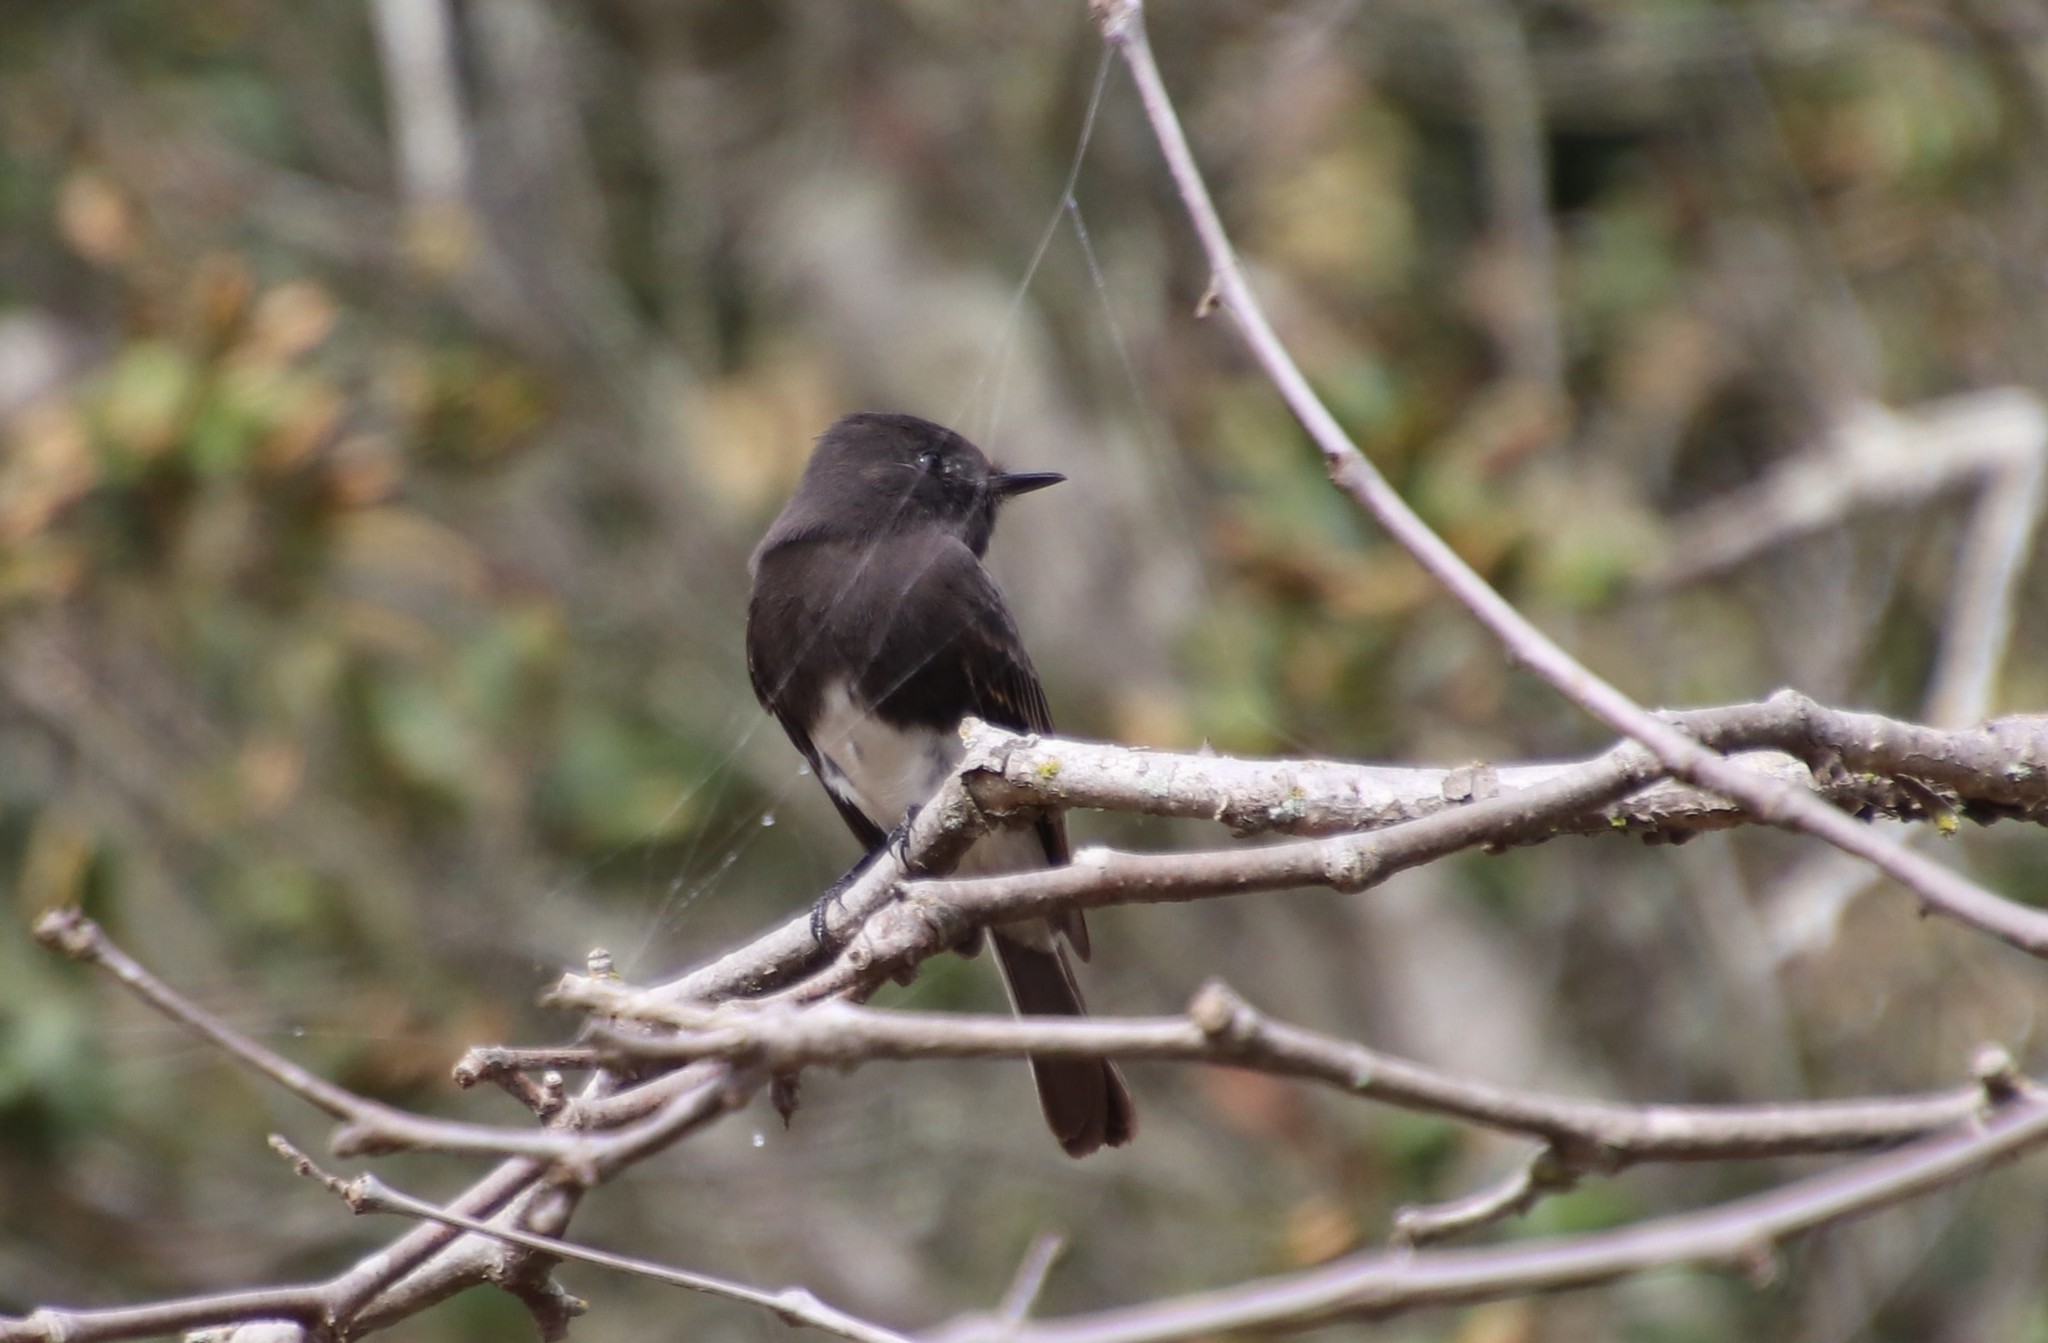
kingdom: Animalia
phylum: Chordata
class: Aves
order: Passeriformes
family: Tyrannidae
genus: Sayornis
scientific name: Sayornis nigricans
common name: Black phoebe
